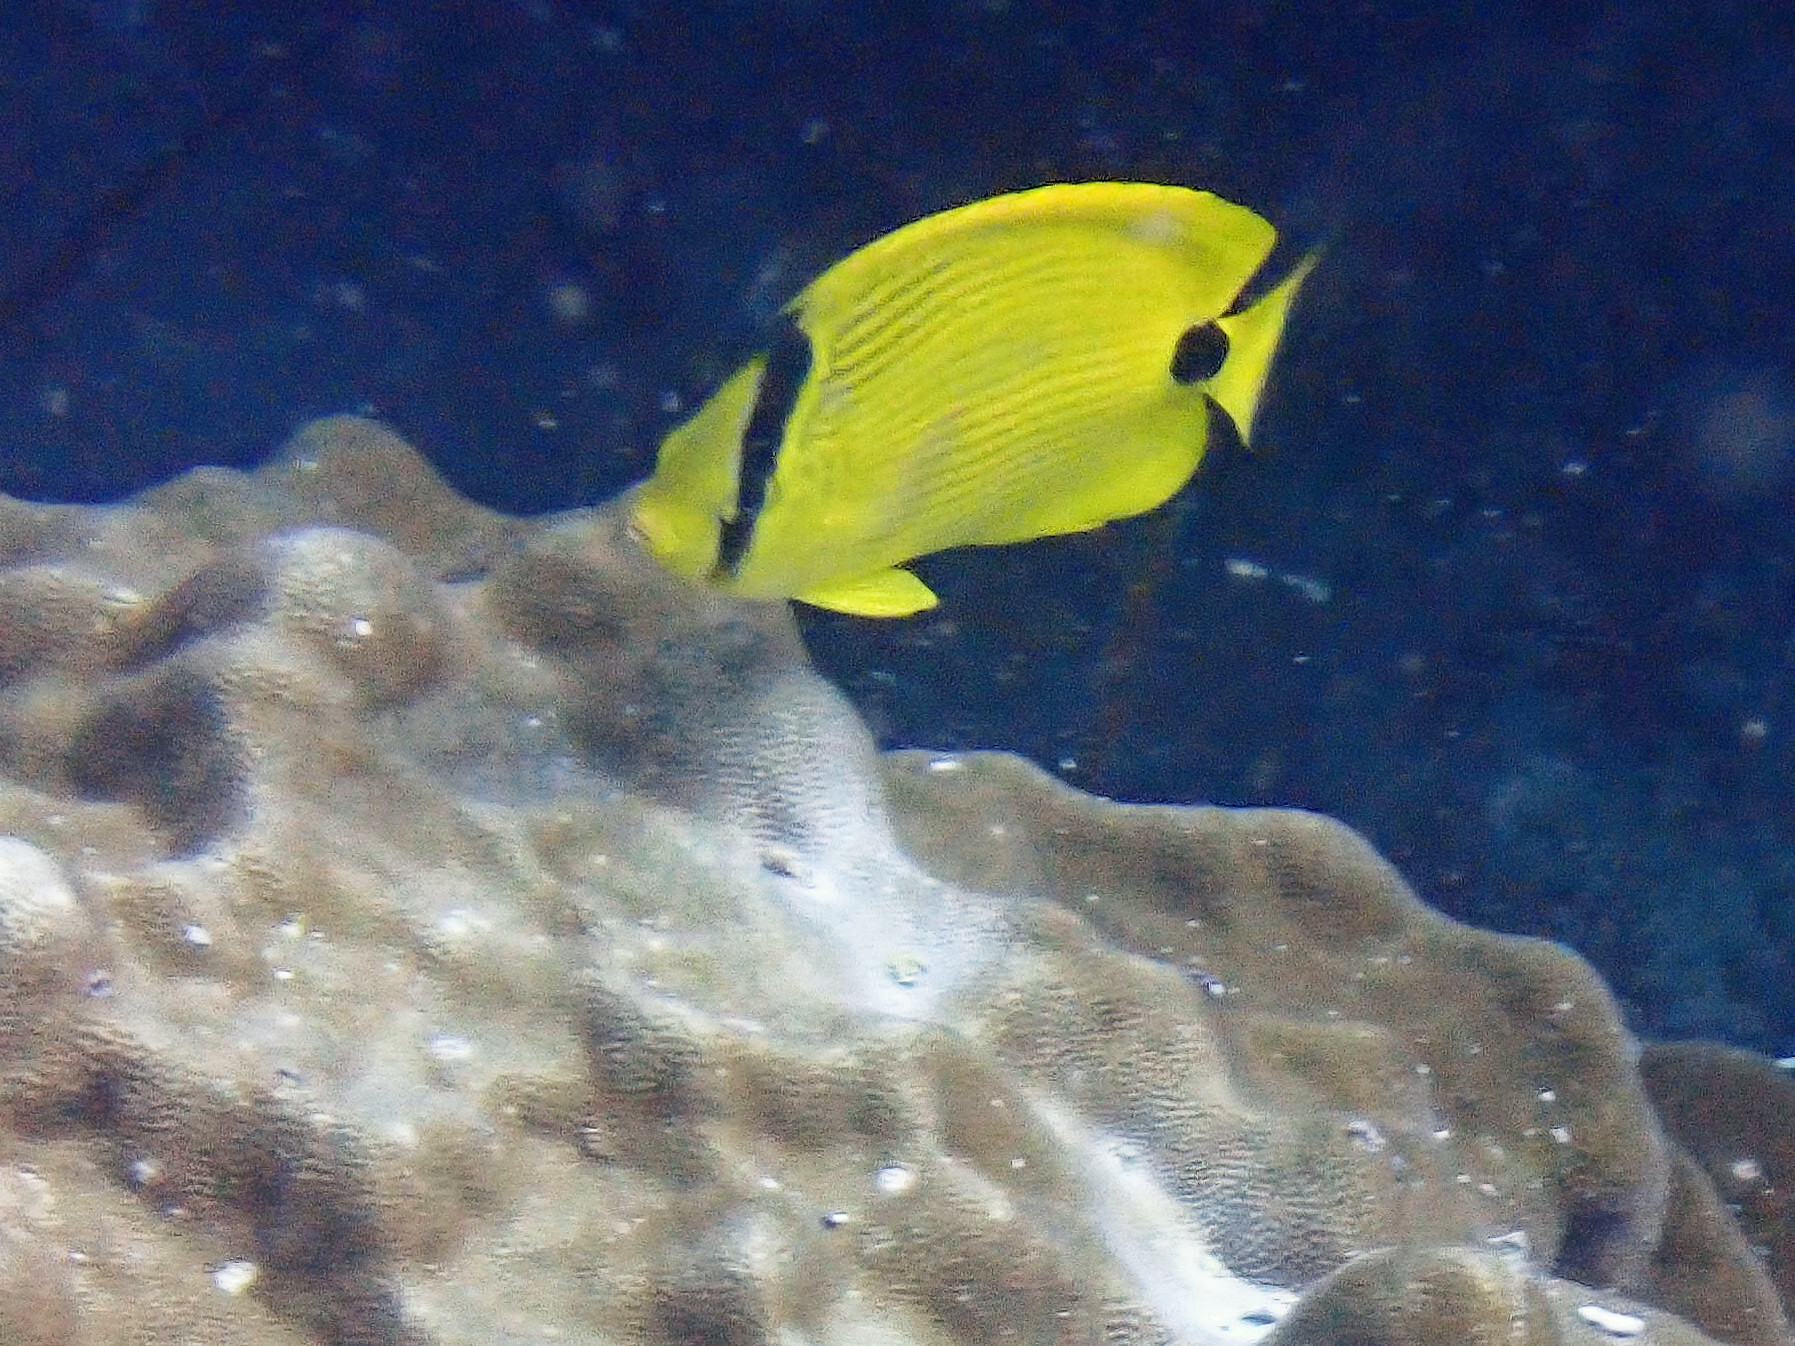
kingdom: Animalia
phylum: Chordata
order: Perciformes
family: Chaetodontidae
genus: Chaetodon
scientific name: Chaetodon andamanensis
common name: Yellow butterflyfish
